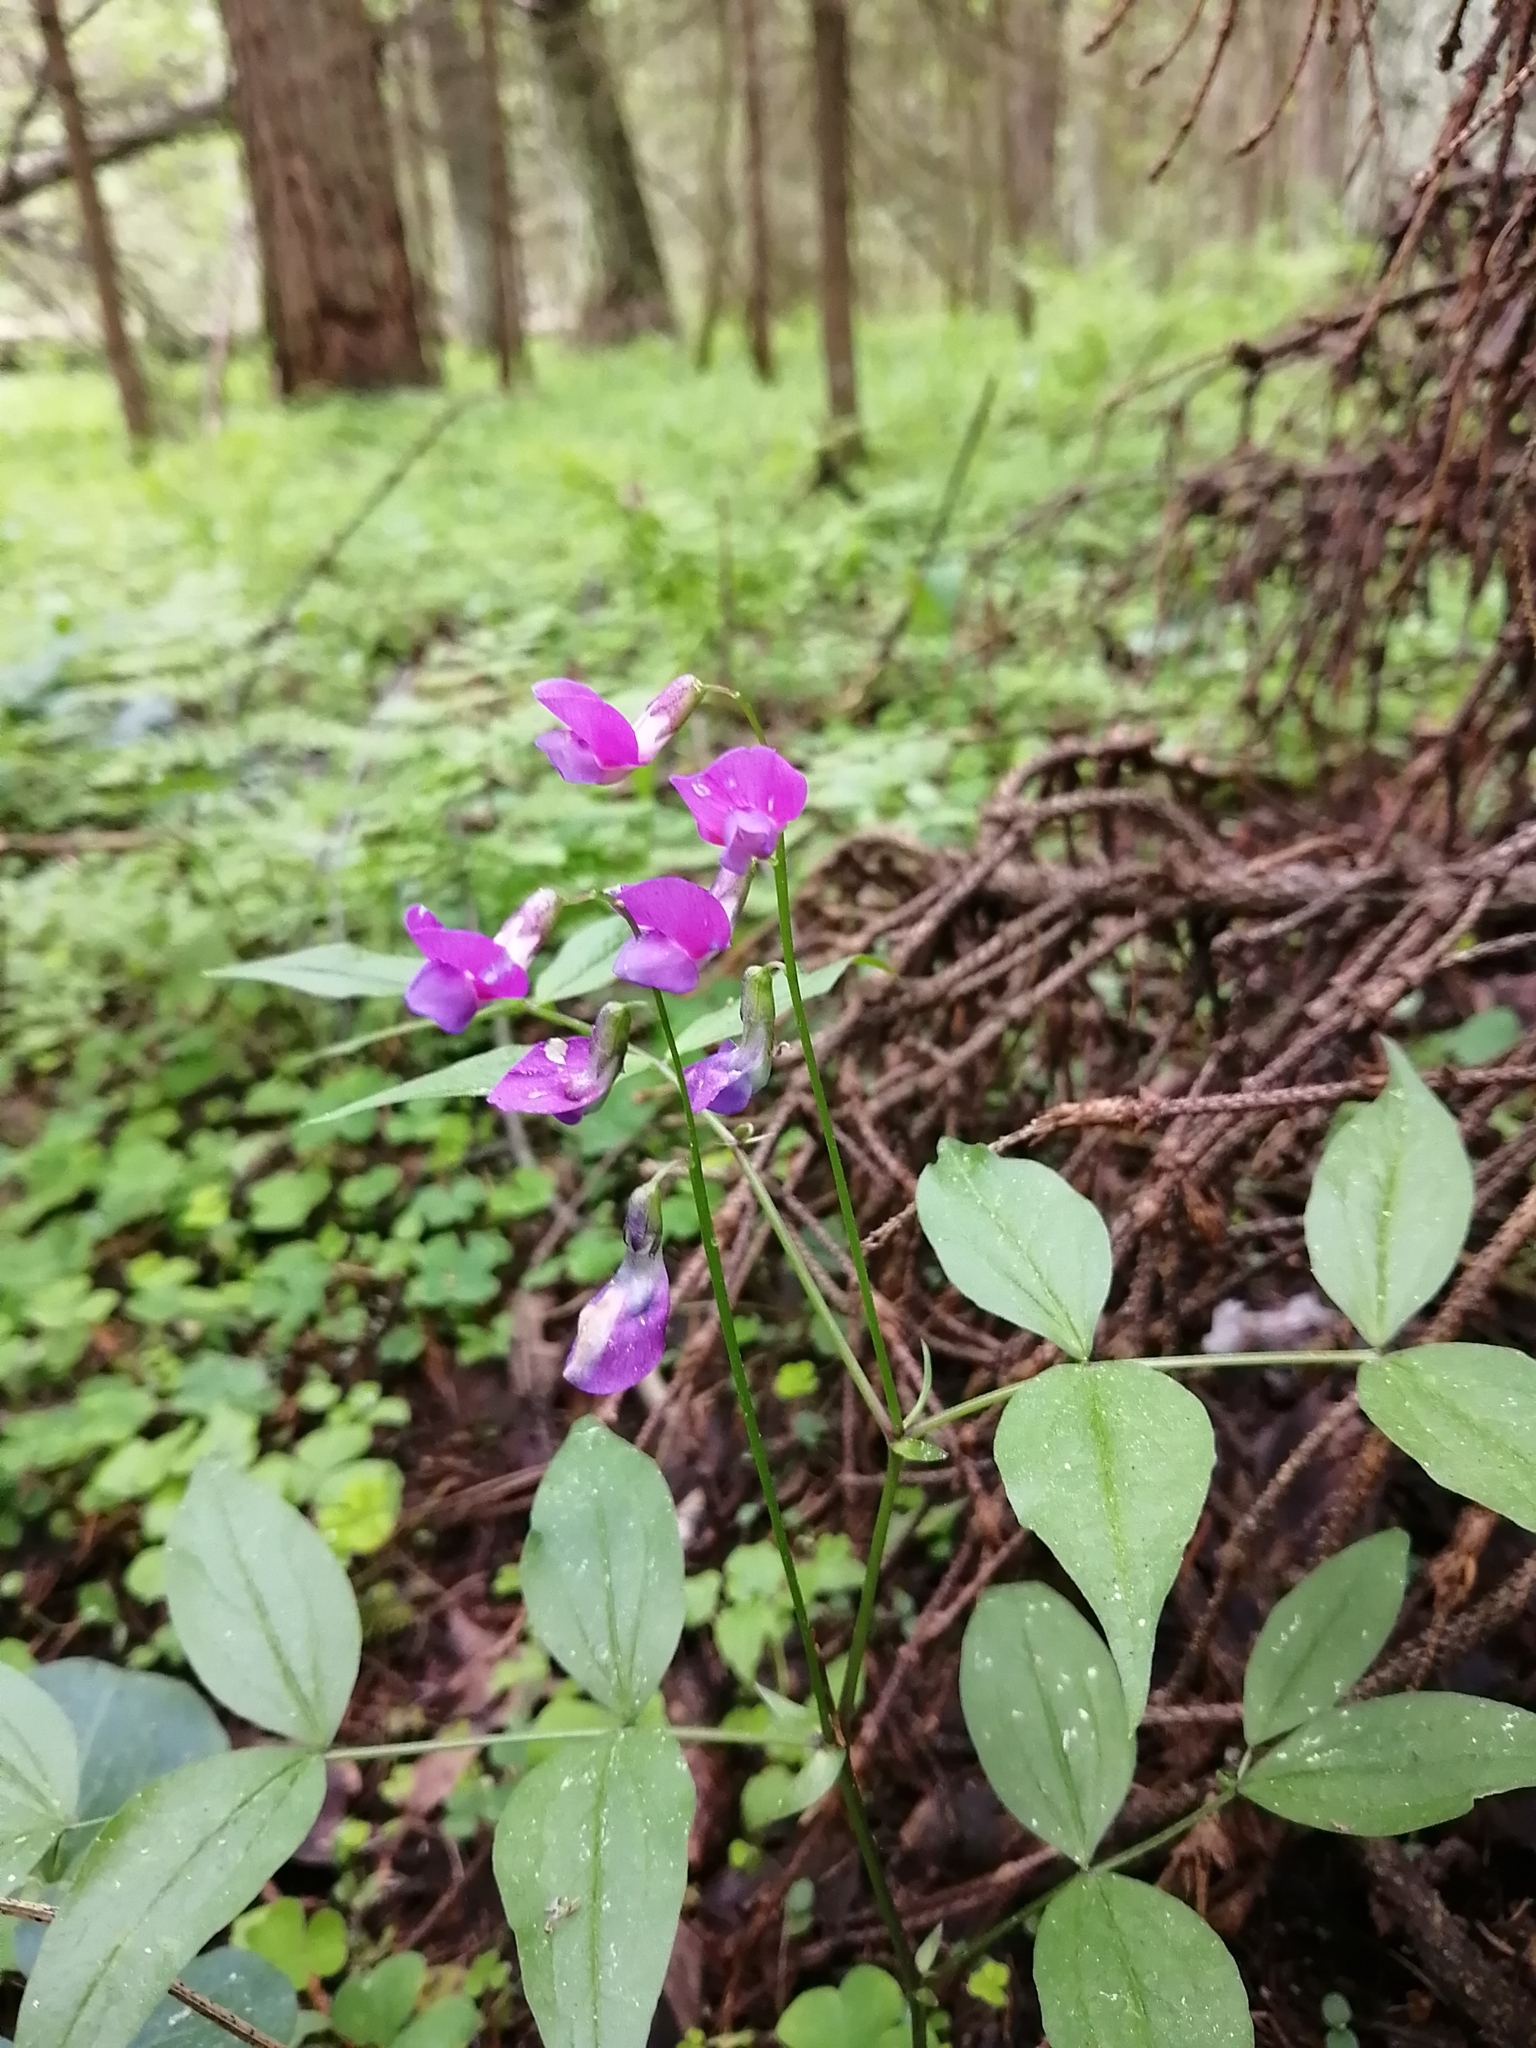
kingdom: Plantae
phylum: Tracheophyta
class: Magnoliopsida
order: Fabales
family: Fabaceae
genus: Lathyrus
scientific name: Lathyrus vernus
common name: Spring pea
